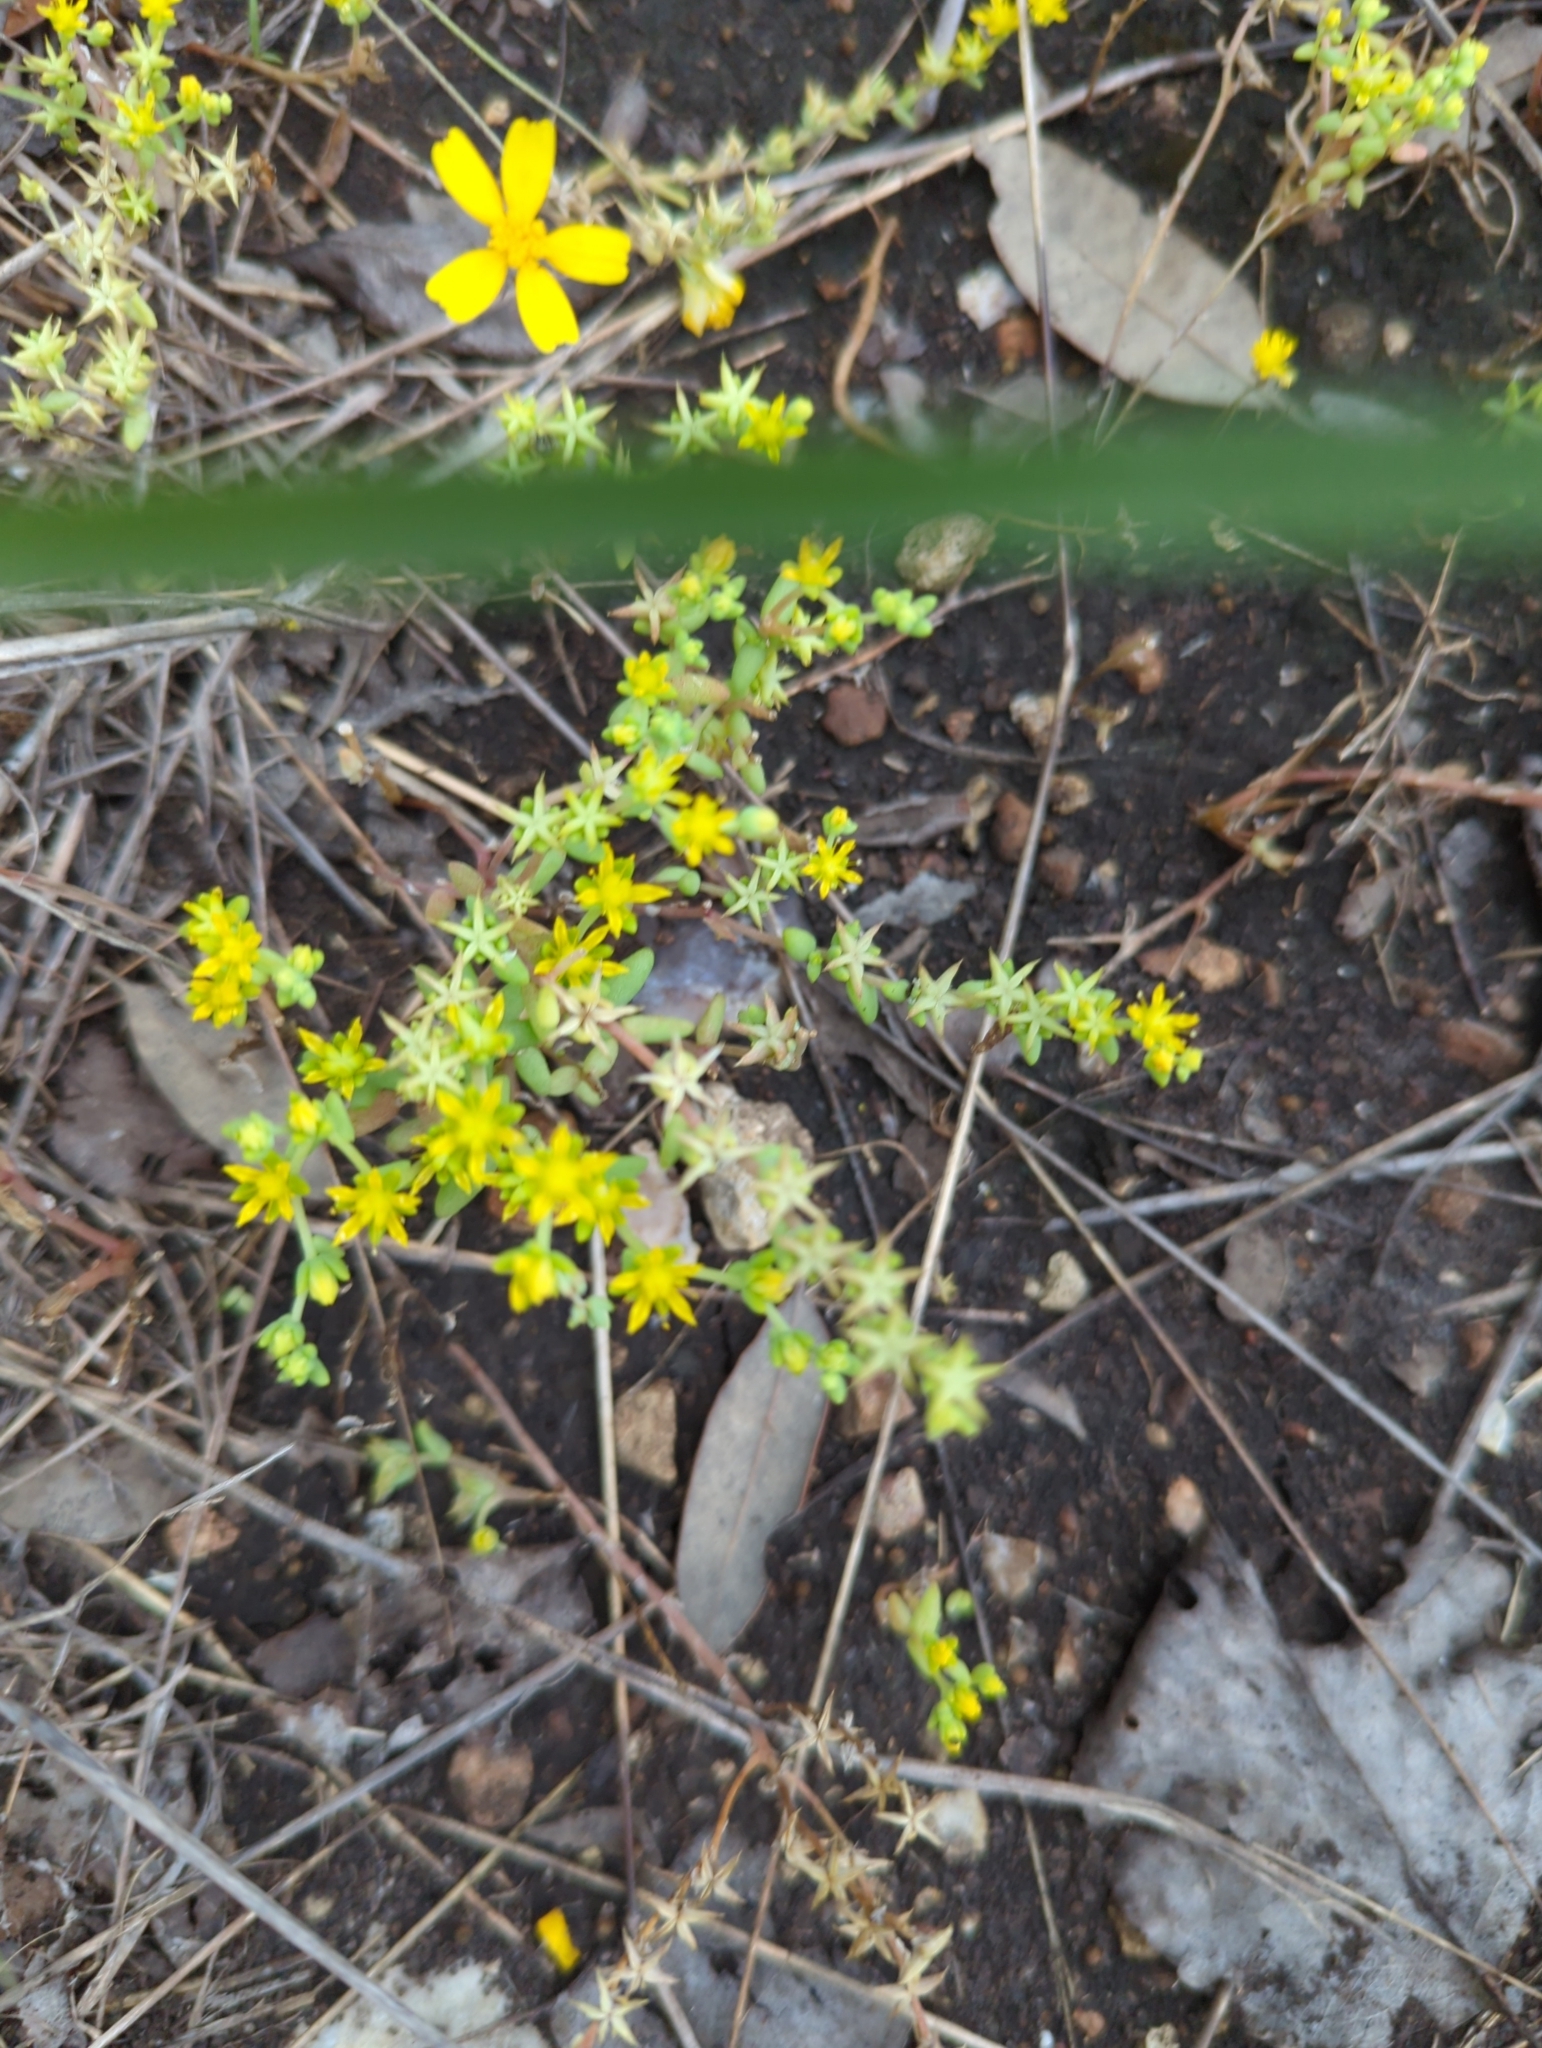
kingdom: Plantae
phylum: Tracheophyta
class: Magnoliopsida
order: Saxifragales
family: Crassulaceae
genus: Sedum
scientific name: Sedum nuttallii
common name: Yellow stonecrop
